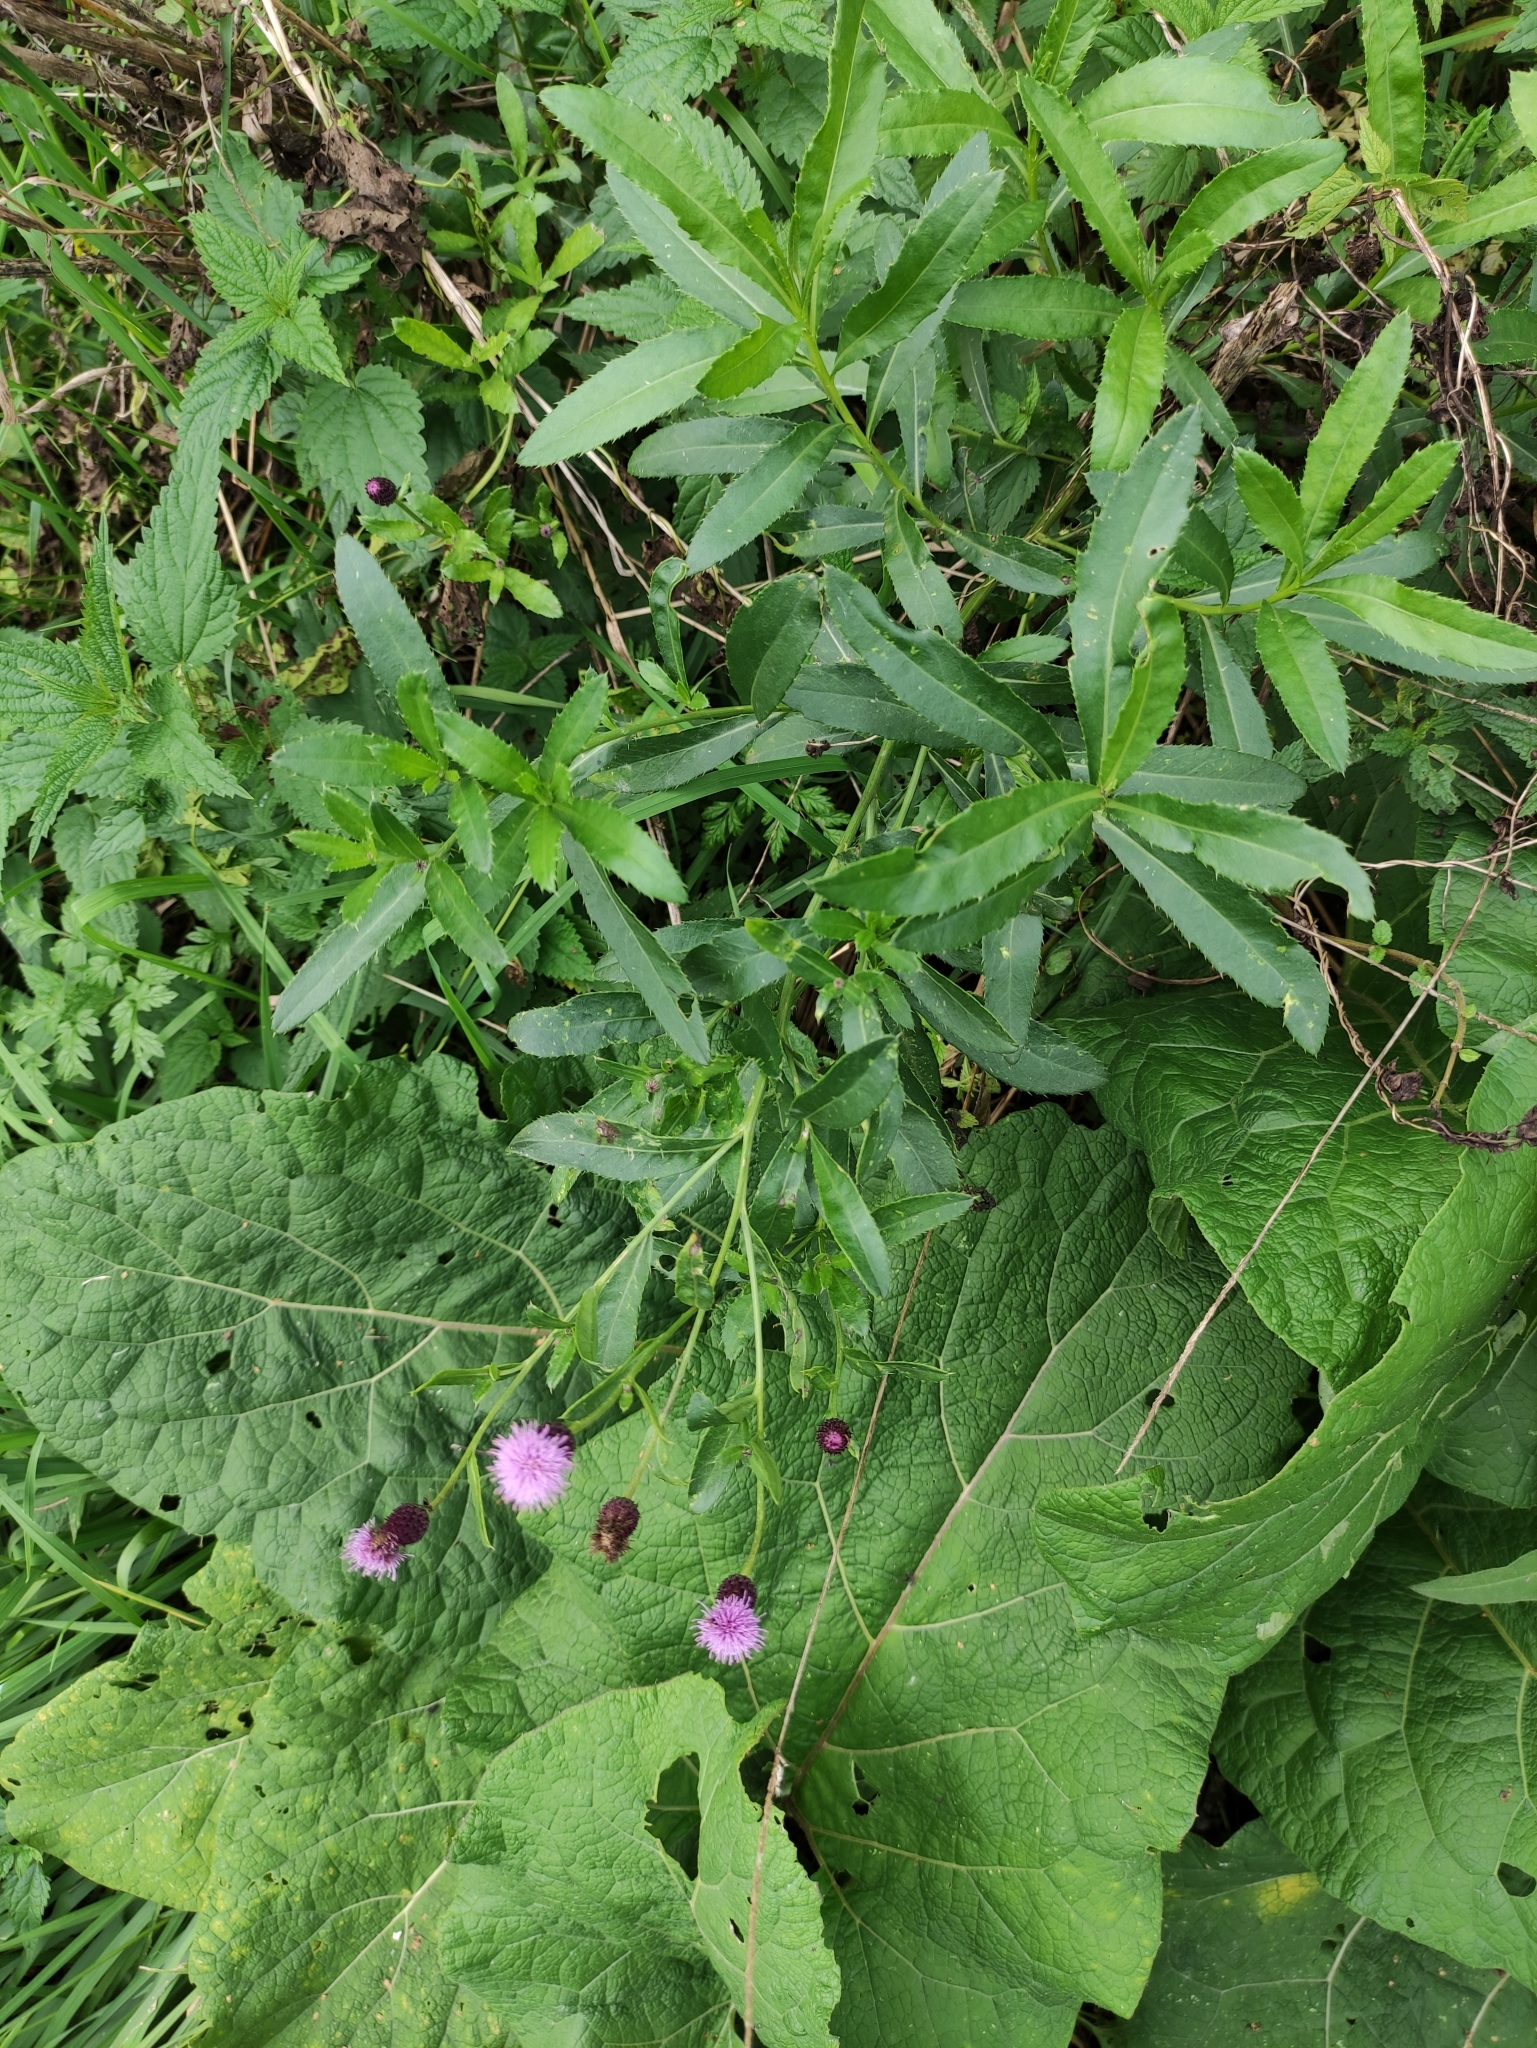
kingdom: Plantae
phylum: Tracheophyta
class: Magnoliopsida
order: Asterales
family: Asteraceae
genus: Cirsium
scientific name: Cirsium arvense
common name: Creeping thistle
